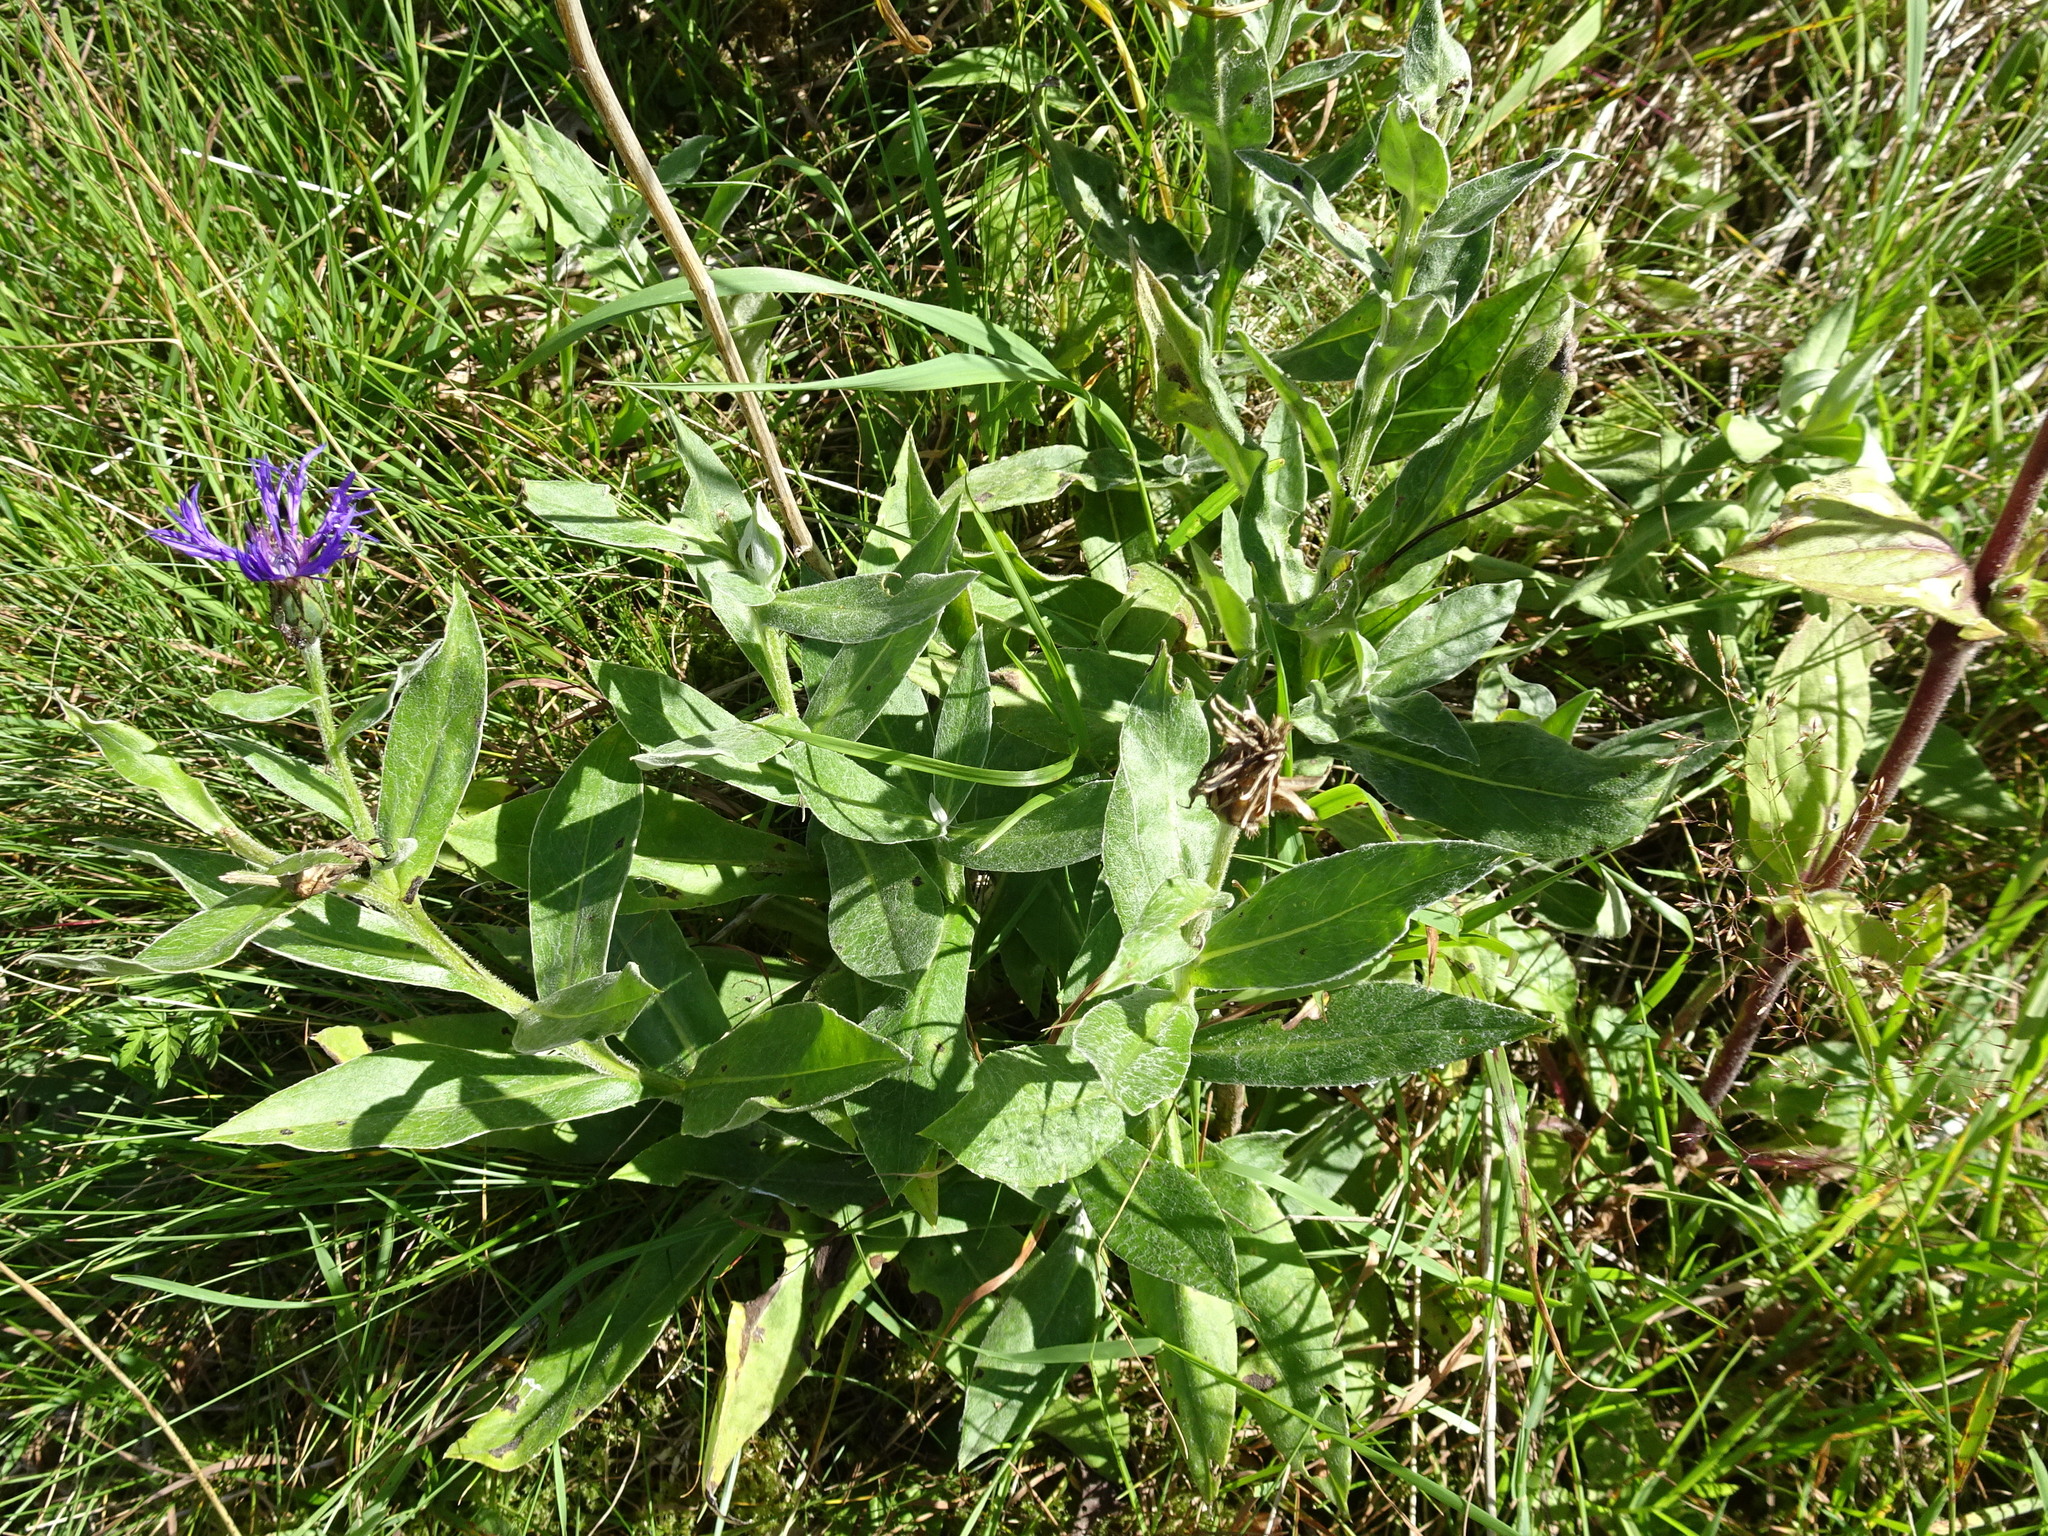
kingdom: Plantae
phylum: Tracheophyta
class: Magnoliopsida
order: Asterales
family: Asteraceae
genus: Centaurea
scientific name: Centaurea montana
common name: Perennial cornflower
